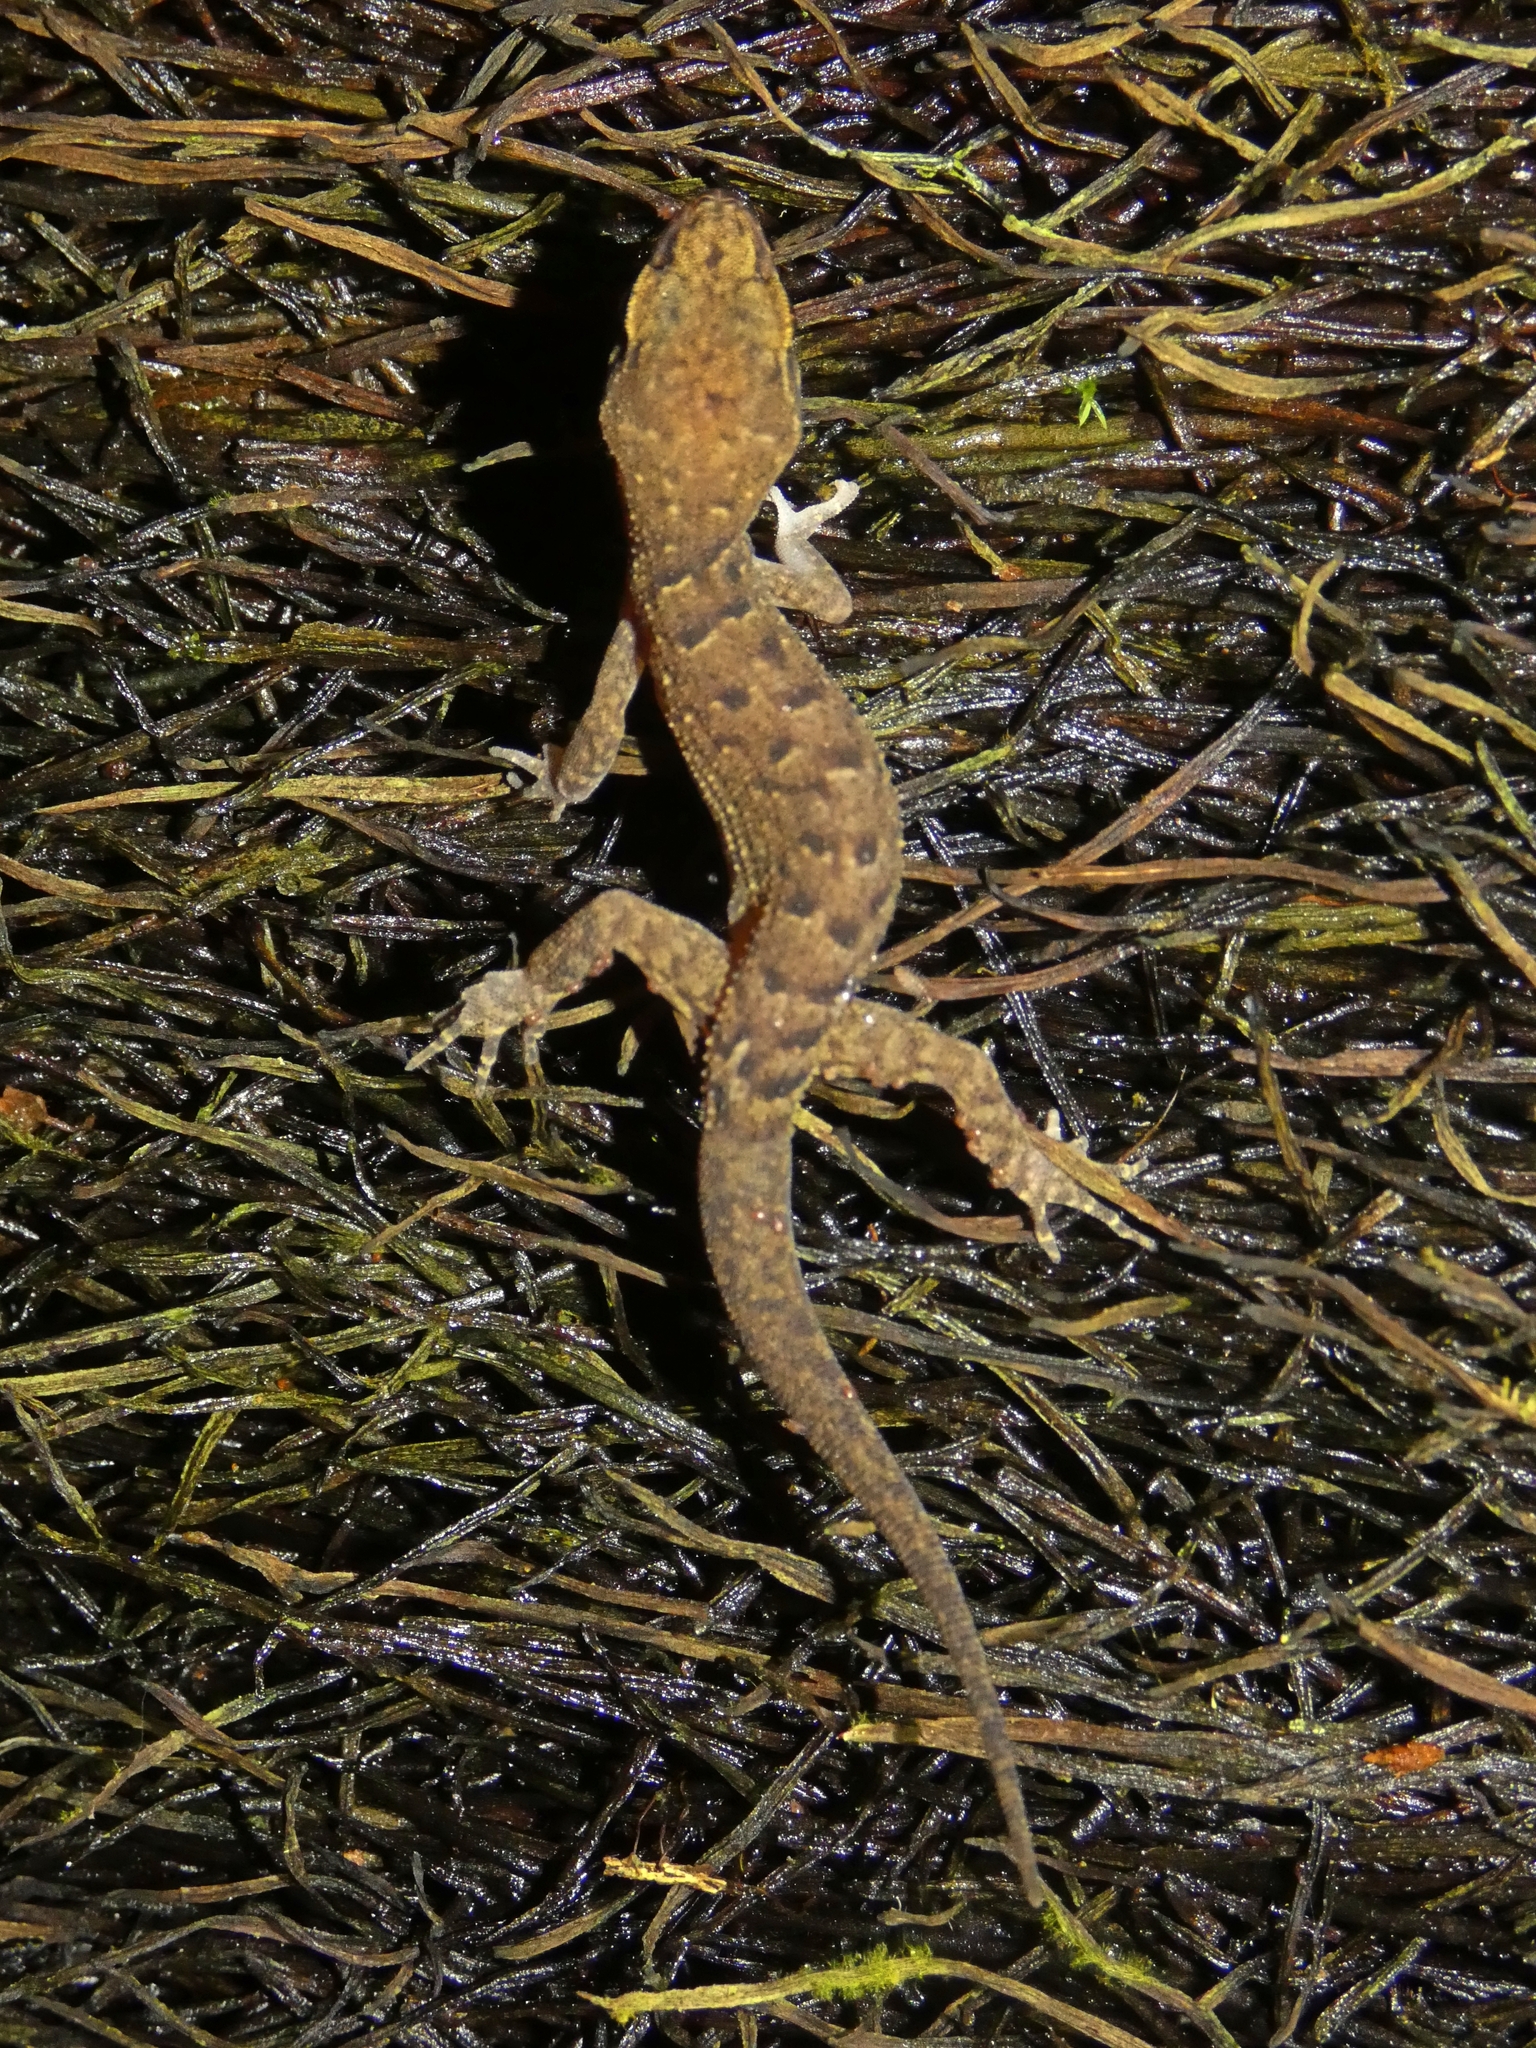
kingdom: Animalia
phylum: Chordata
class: Squamata
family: Gekkonidae
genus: Nactus
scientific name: Nactus cheverti
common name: Chevert's gecko
